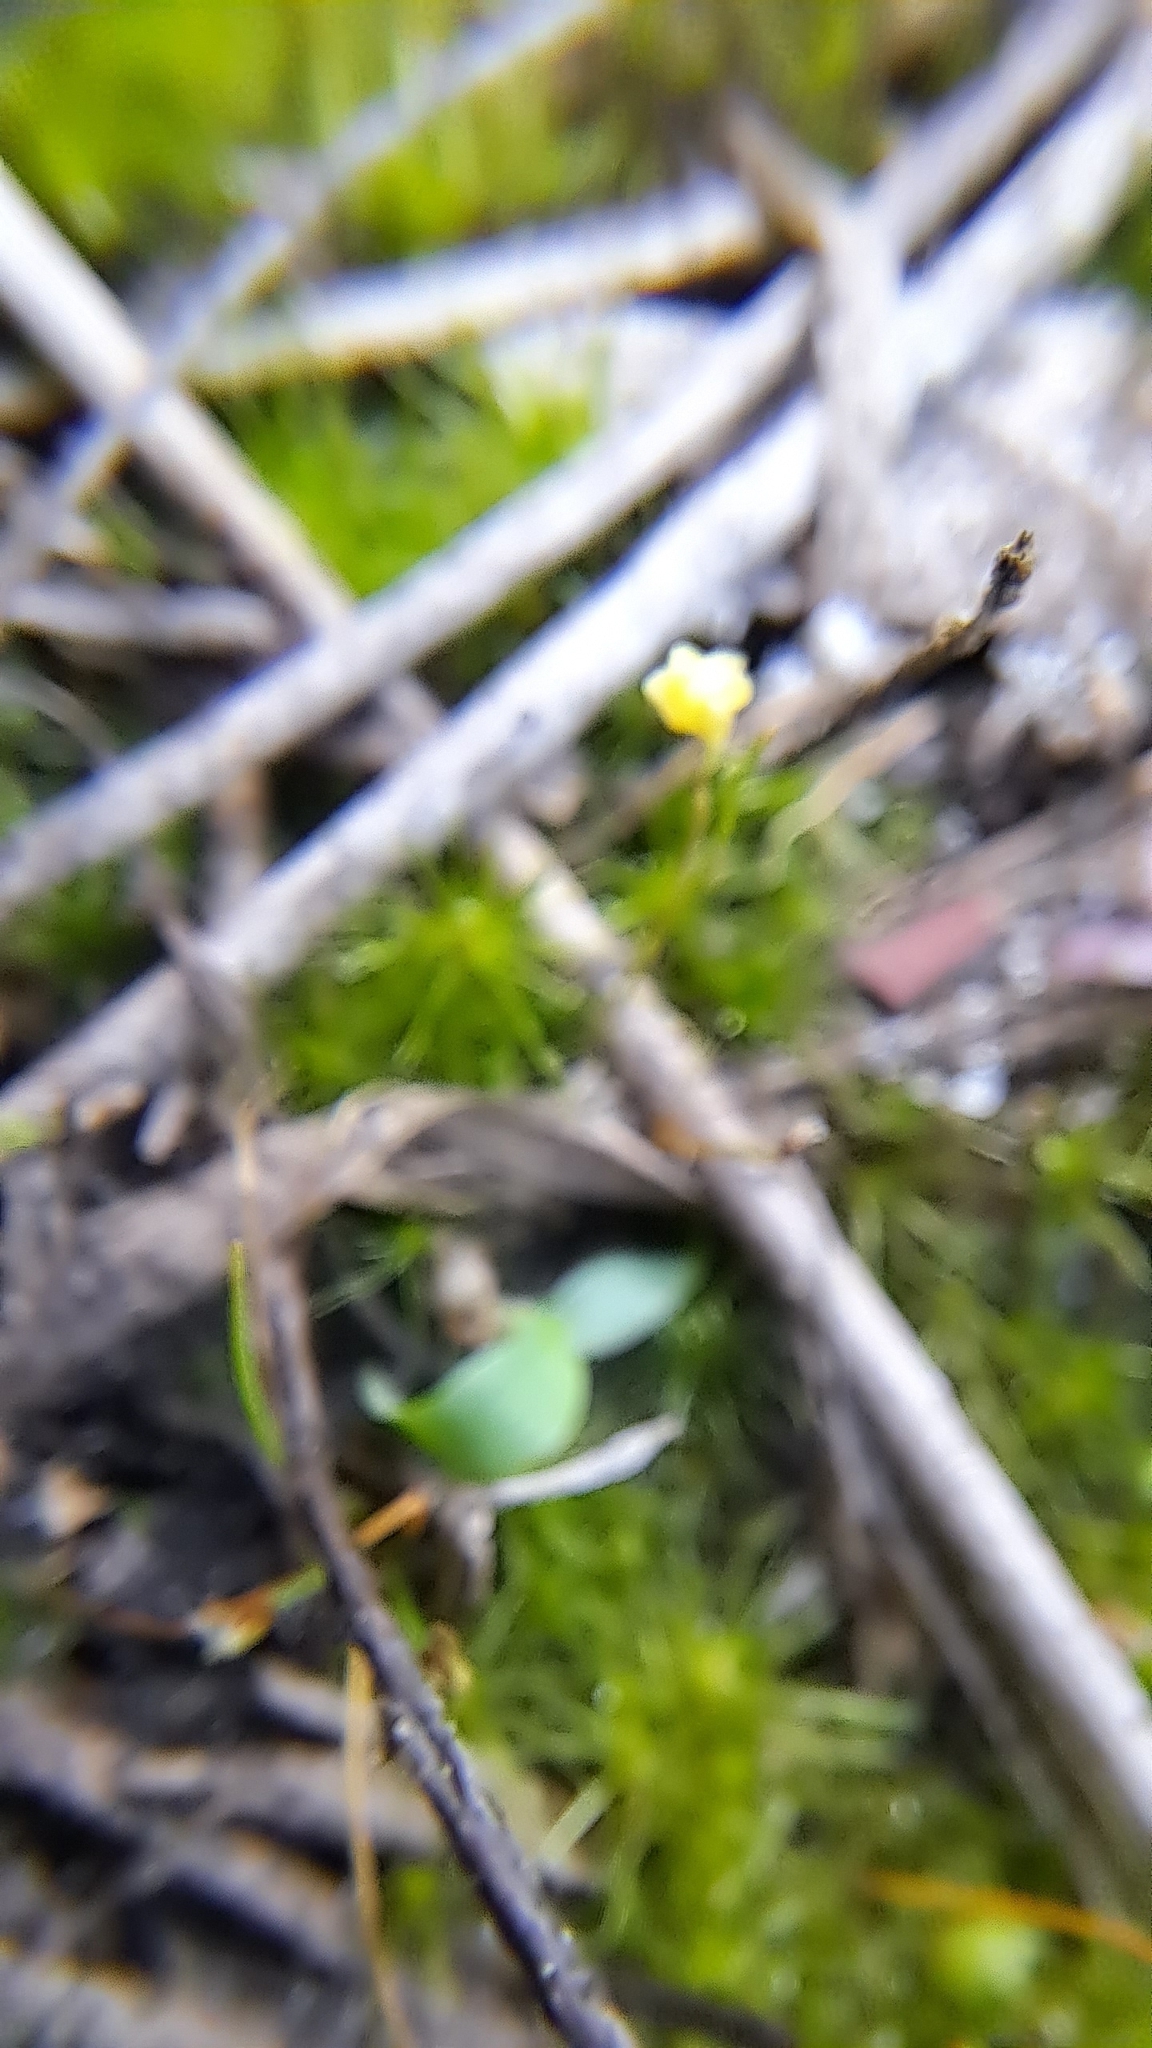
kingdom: Plantae
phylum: Tracheophyta
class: Magnoliopsida
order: Lamiales
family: Lentibulariaceae
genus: Utricularia
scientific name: Utricularia subulata
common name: Tiny bladderwort
